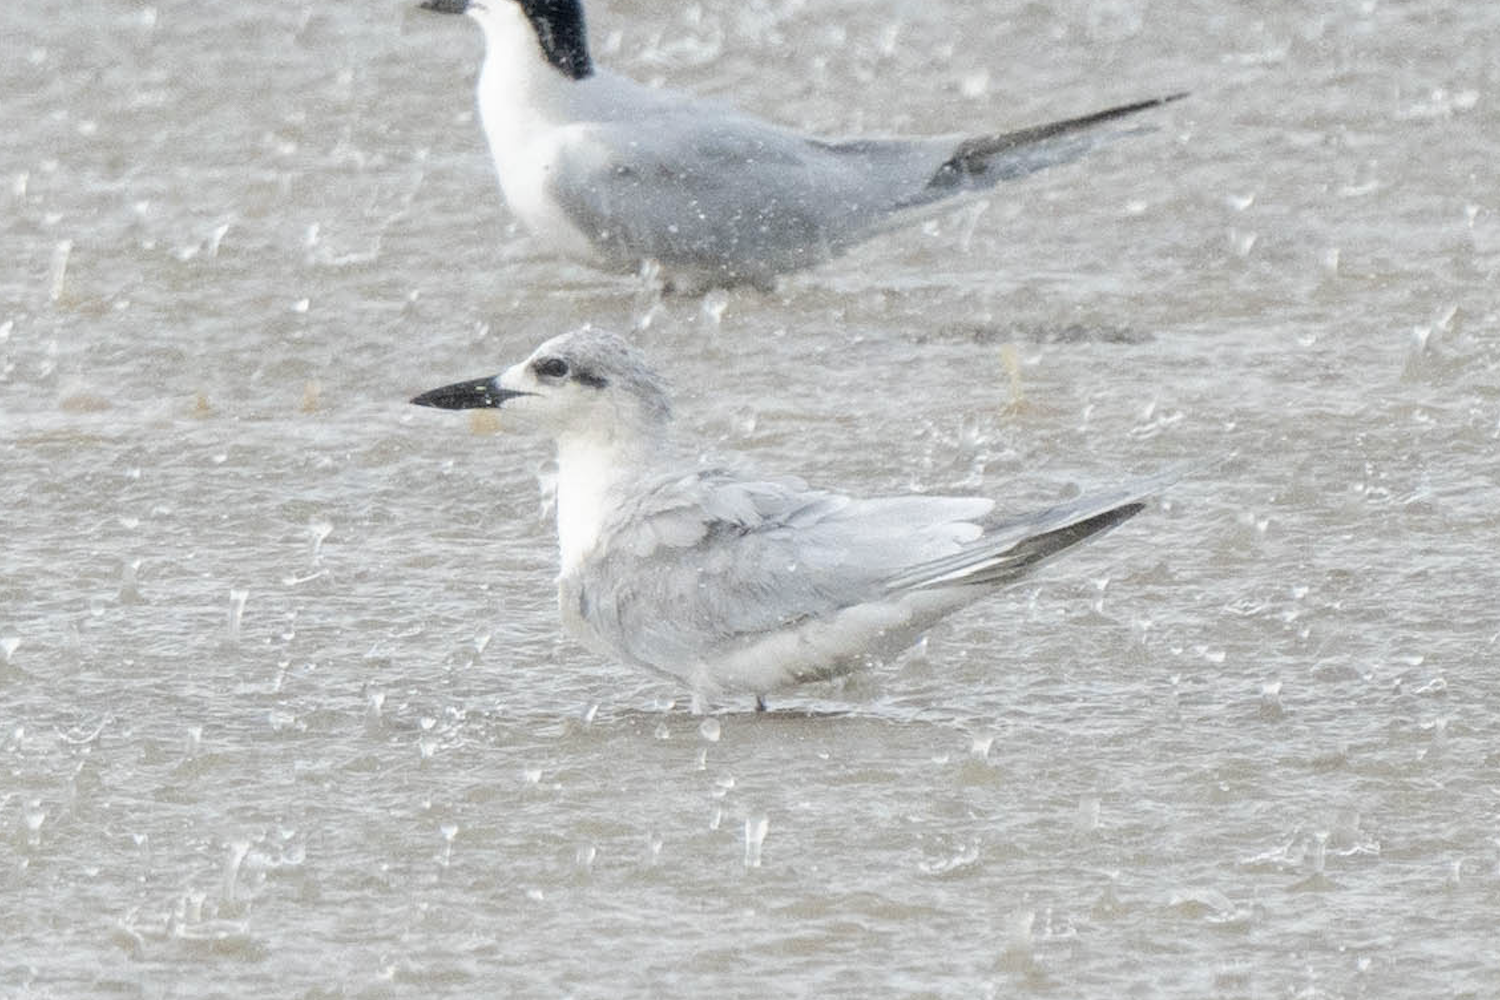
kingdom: Animalia
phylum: Chordata
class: Aves
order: Charadriiformes
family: Laridae
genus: Gelochelidon
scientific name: Gelochelidon nilotica
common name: Gull-billed tern
